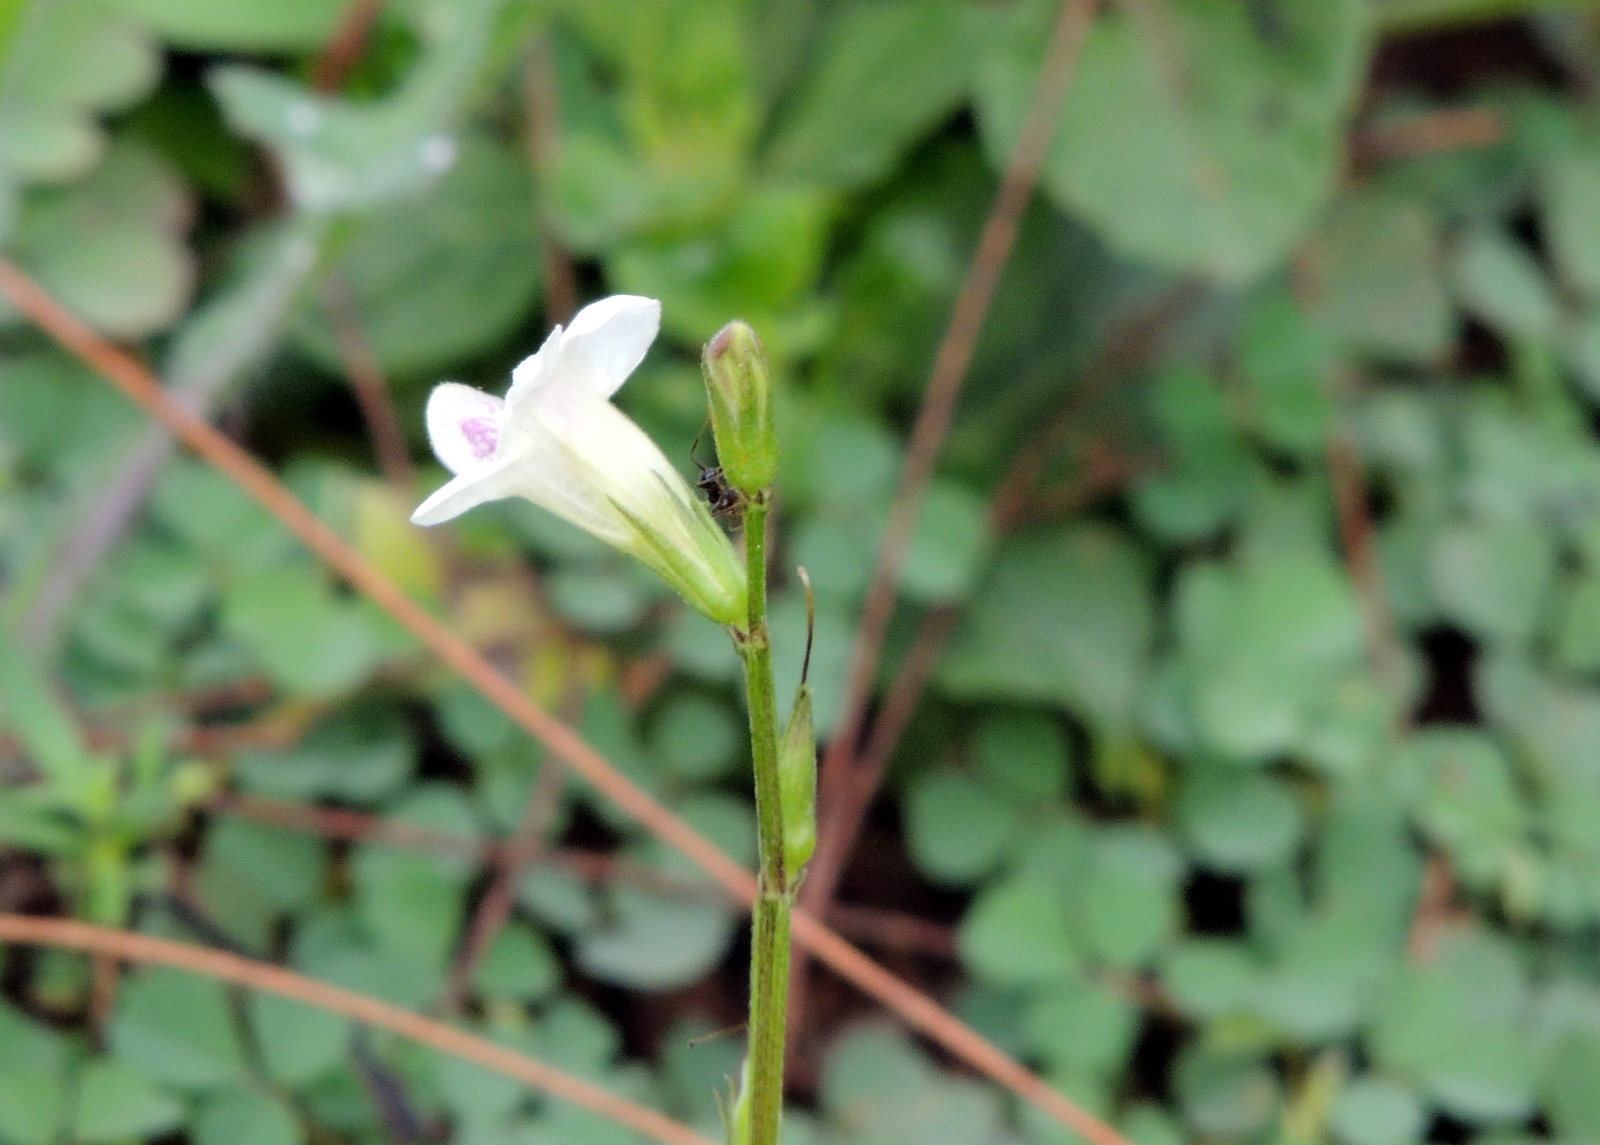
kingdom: Plantae
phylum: Tracheophyta
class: Magnoliopsida
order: Lamiales
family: Acanthaceae
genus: Asystasia
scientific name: Asystasia intrusa
